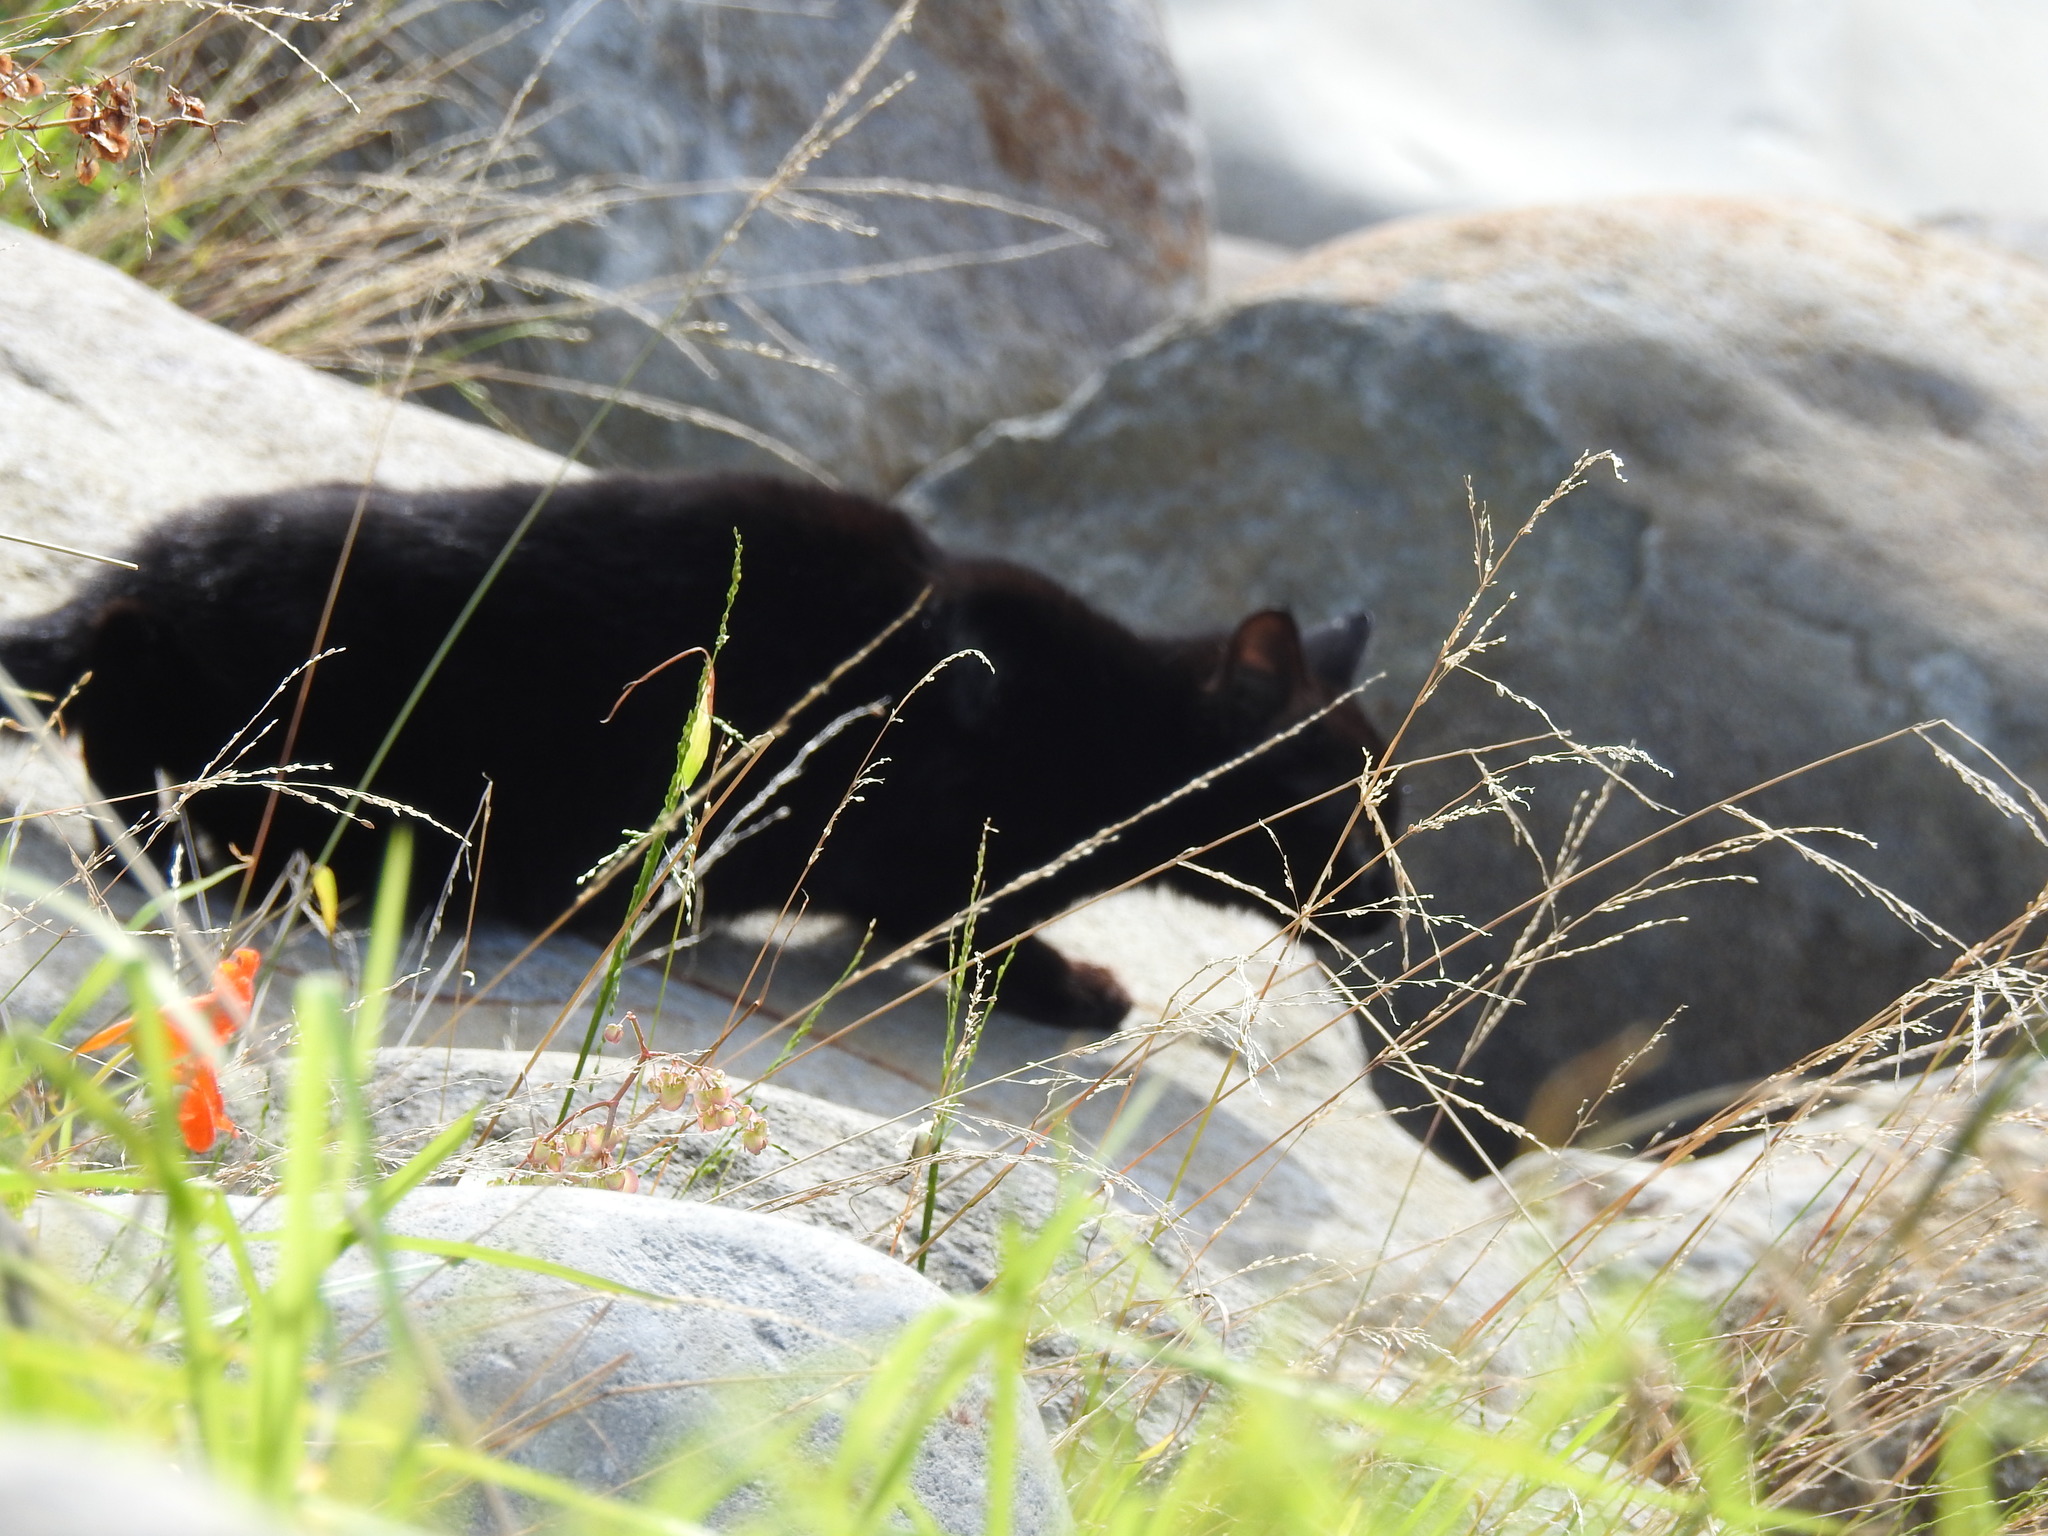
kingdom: Animalia
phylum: Chordata
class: Mammalia
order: Carnivora
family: Felidae
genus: Felis
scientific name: Felis catus
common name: Domestic cat
